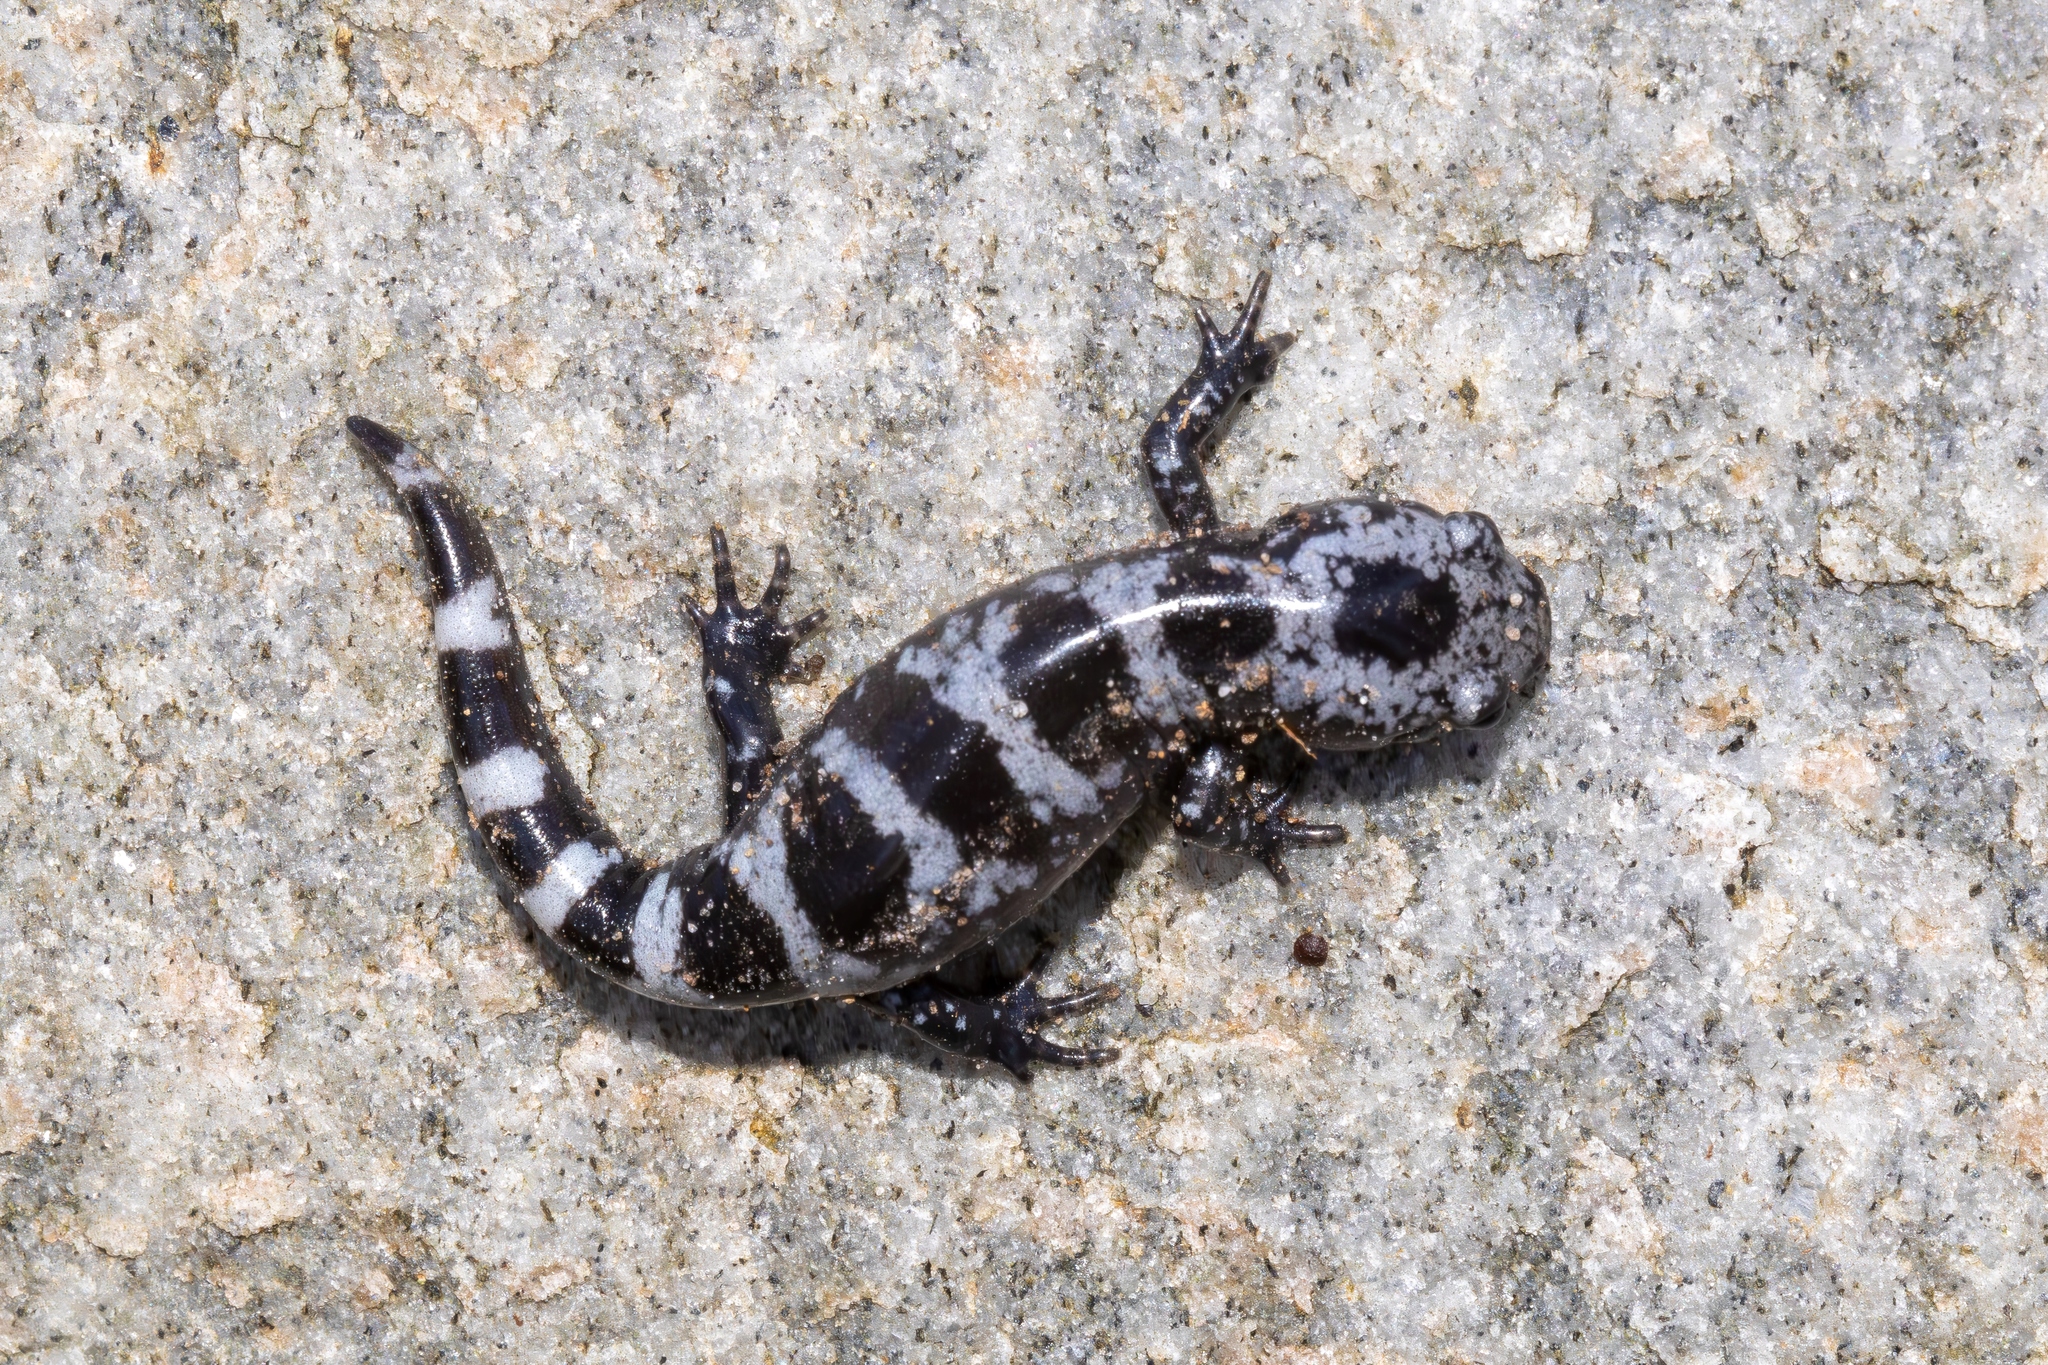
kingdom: Animalia
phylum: Chordata
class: Amphibia
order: Caudata
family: Ambystomatidae
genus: Ambystoma
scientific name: Ambystoma opacum
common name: Marbled salamander
